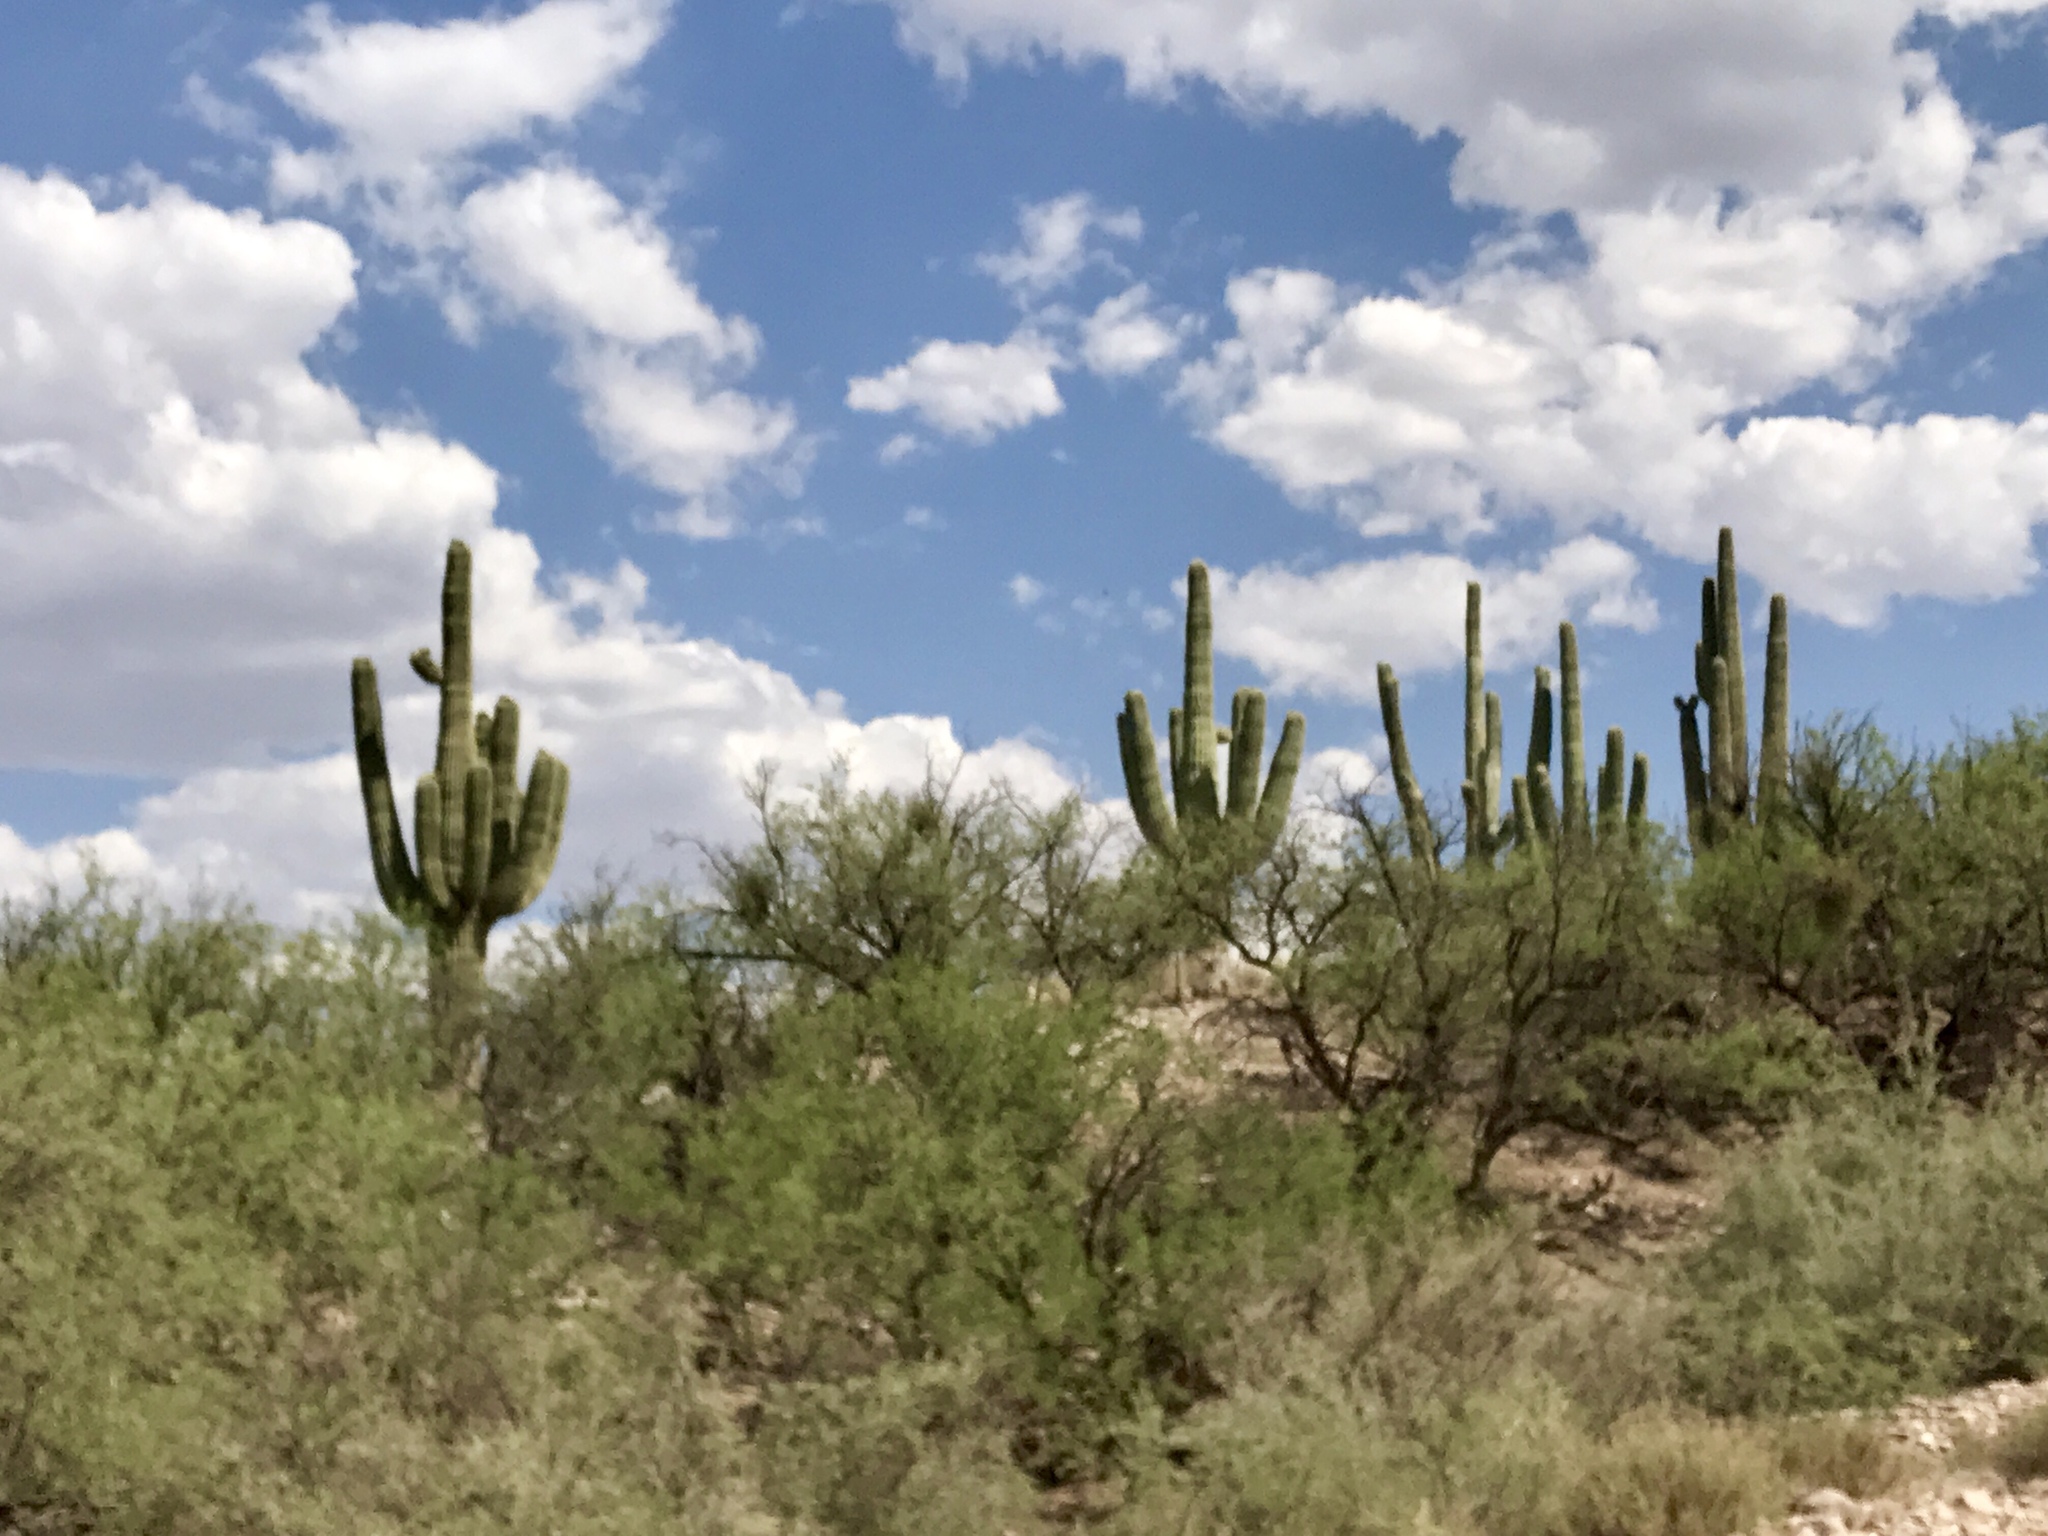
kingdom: Plantae
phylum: Tracheophyta
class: Magnoliopsida
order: Caryophyllales
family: Cactaceae
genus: Carnegiea
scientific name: Carnegiea gigantea
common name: Saguaro
